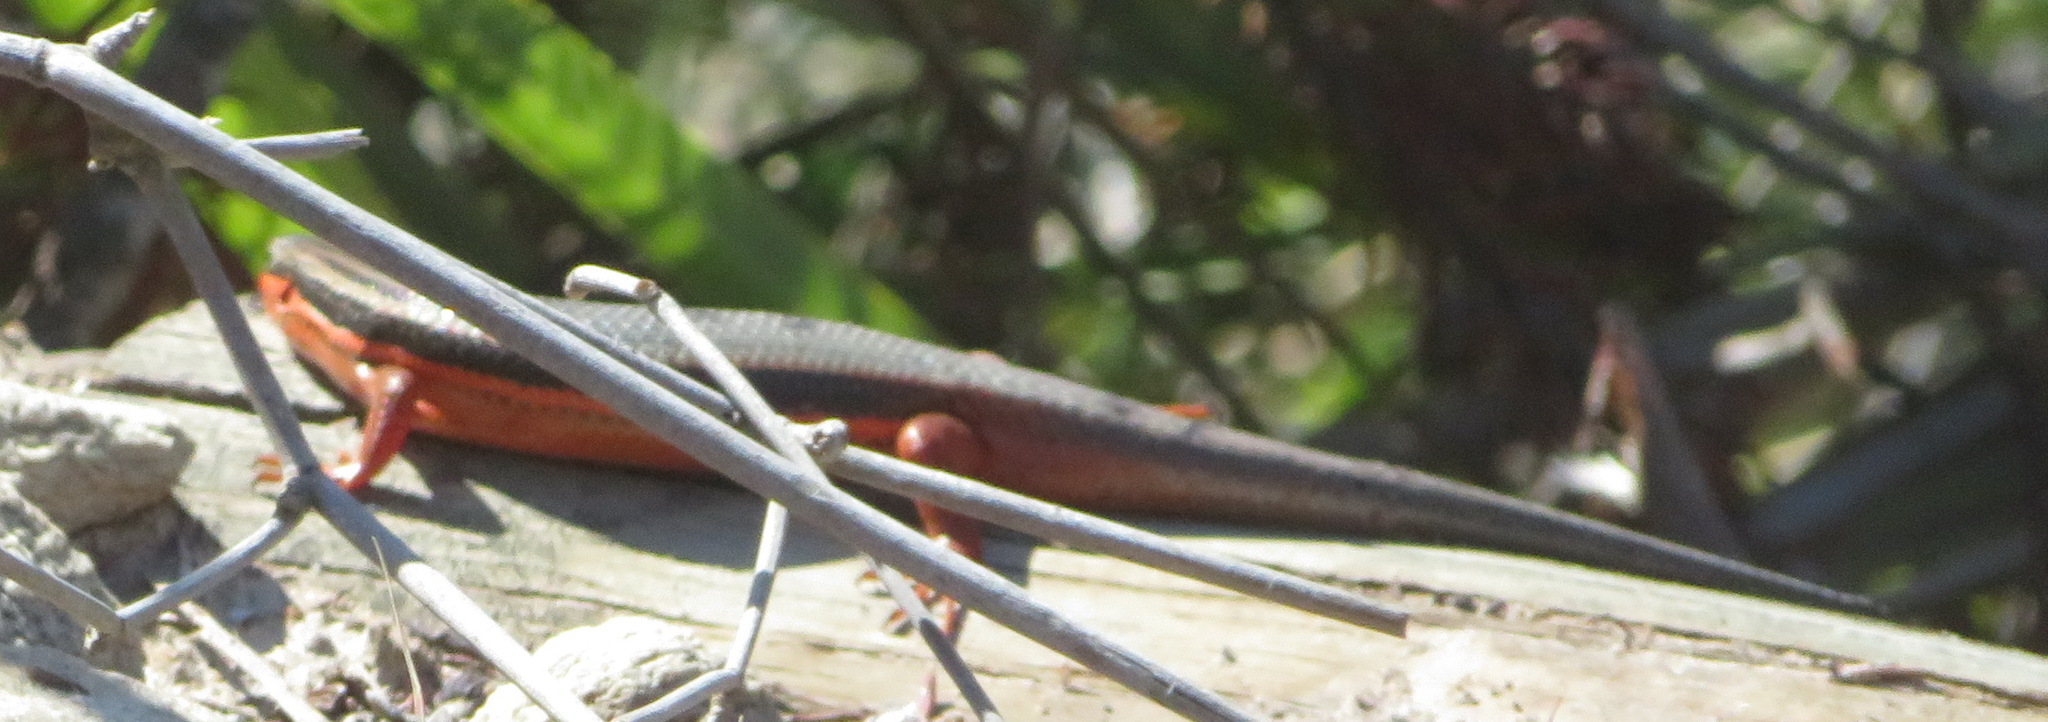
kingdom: Animalia
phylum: Chordata
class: Squamata
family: Scincidae
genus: Trachylepis
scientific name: Trachylepis homalocephala
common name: Red-sided skink
